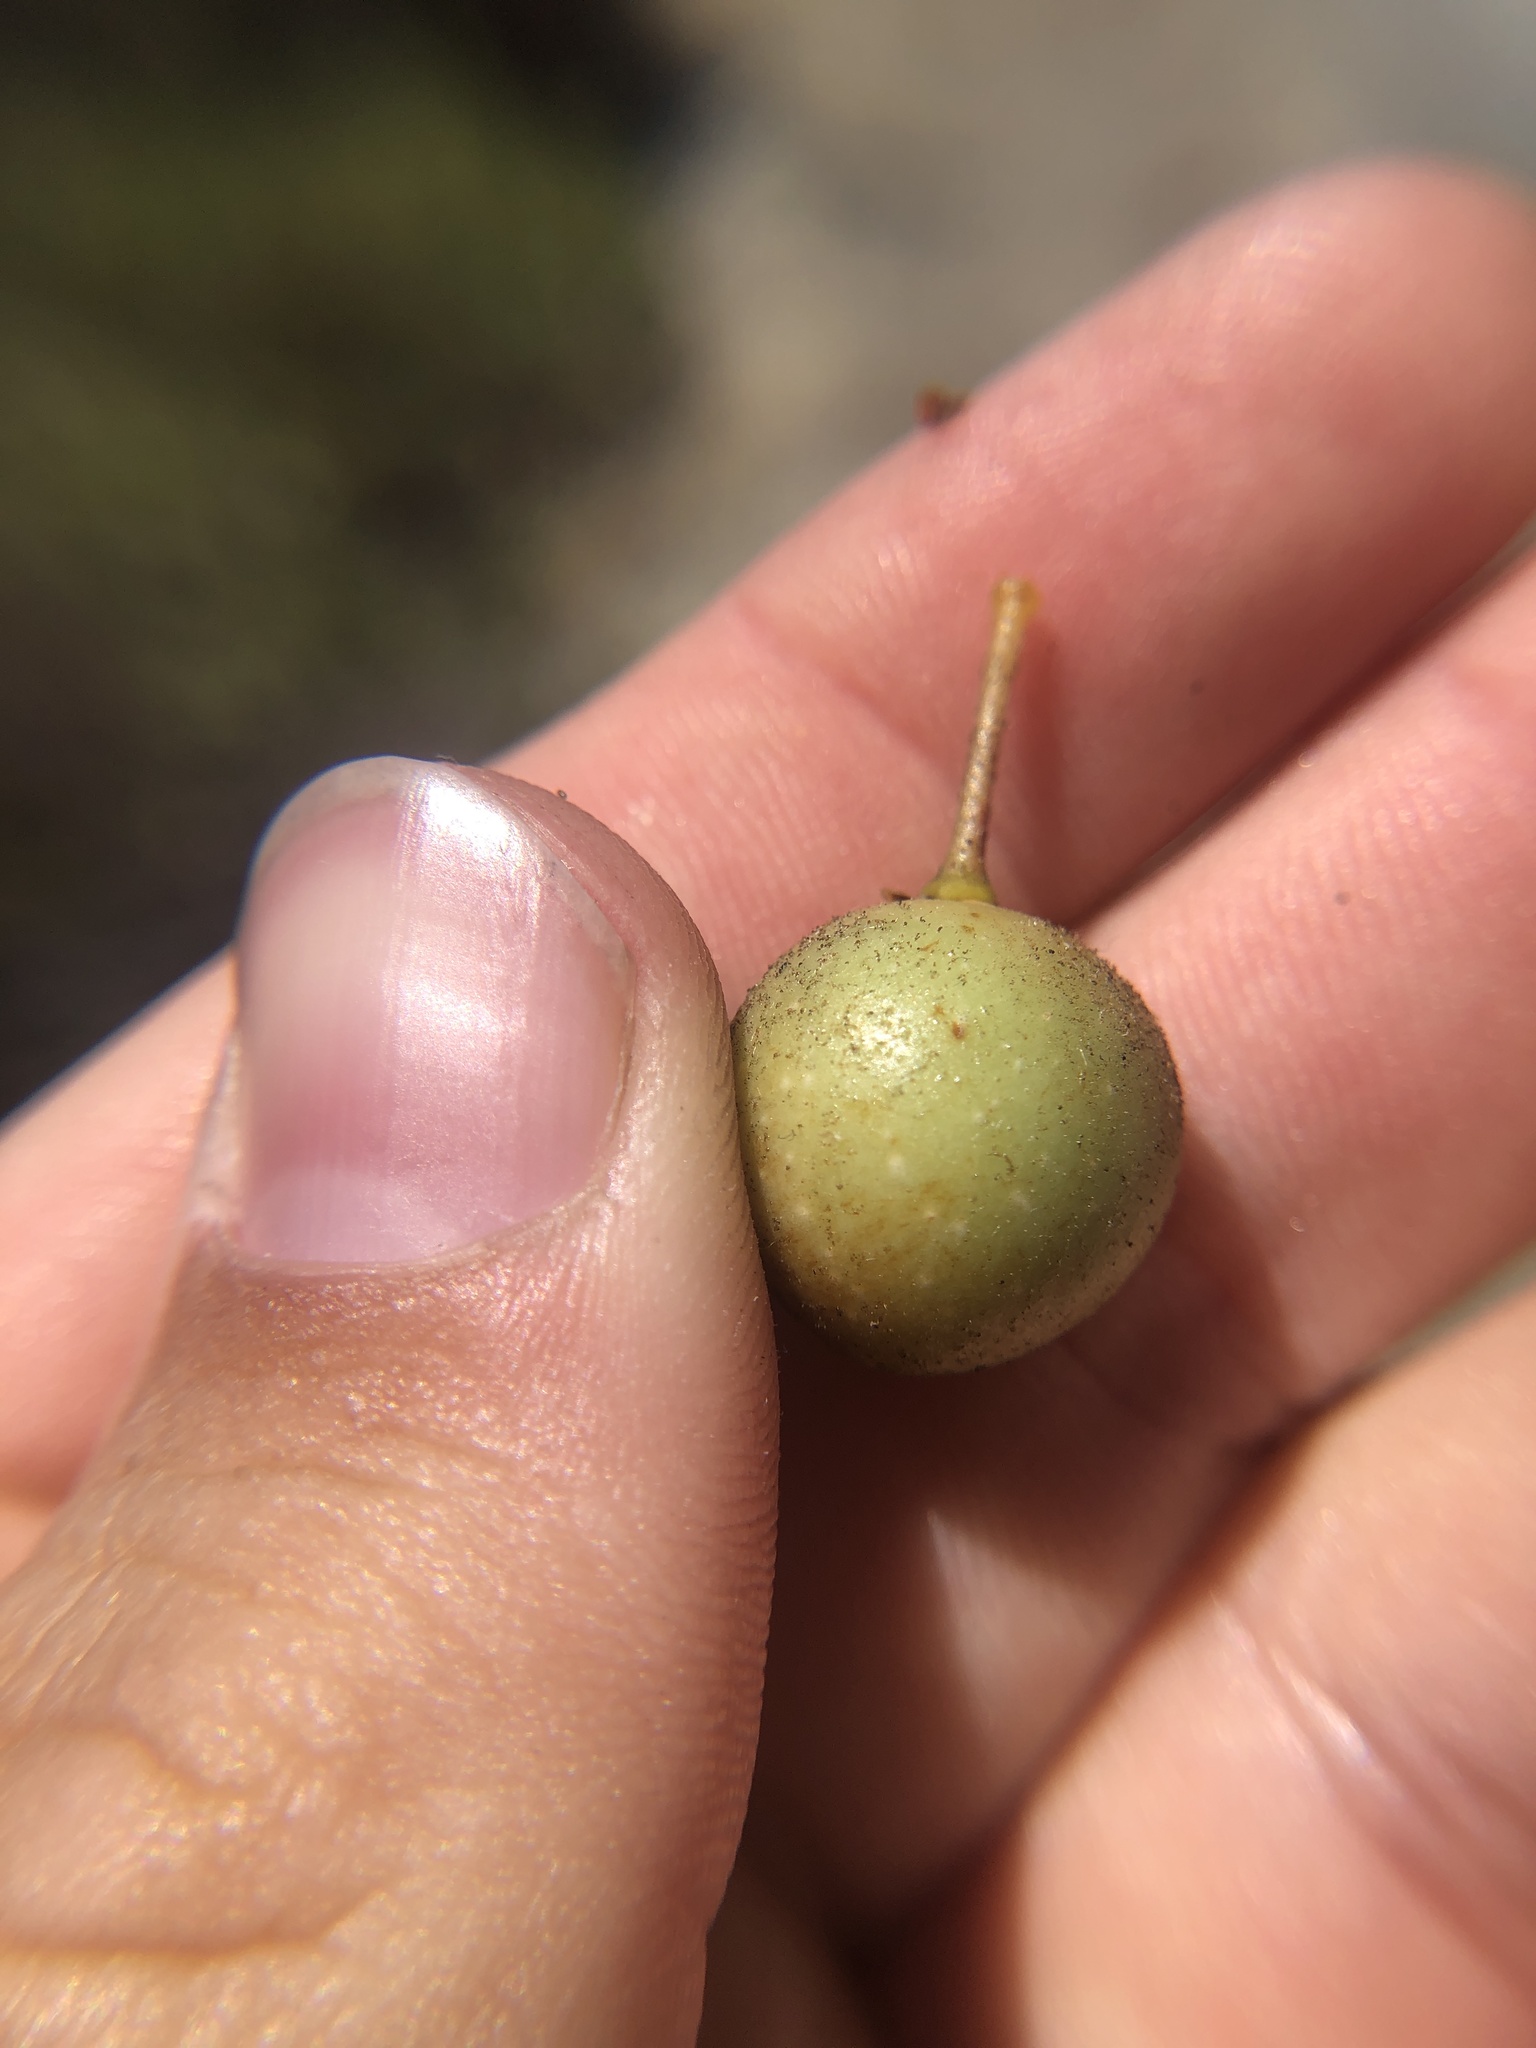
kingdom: Plantae
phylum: Tracheophyta
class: Magnoliopsida
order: Ericales
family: Ericaceae
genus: Arctostaphylos
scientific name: Arctostaphylos glauca
